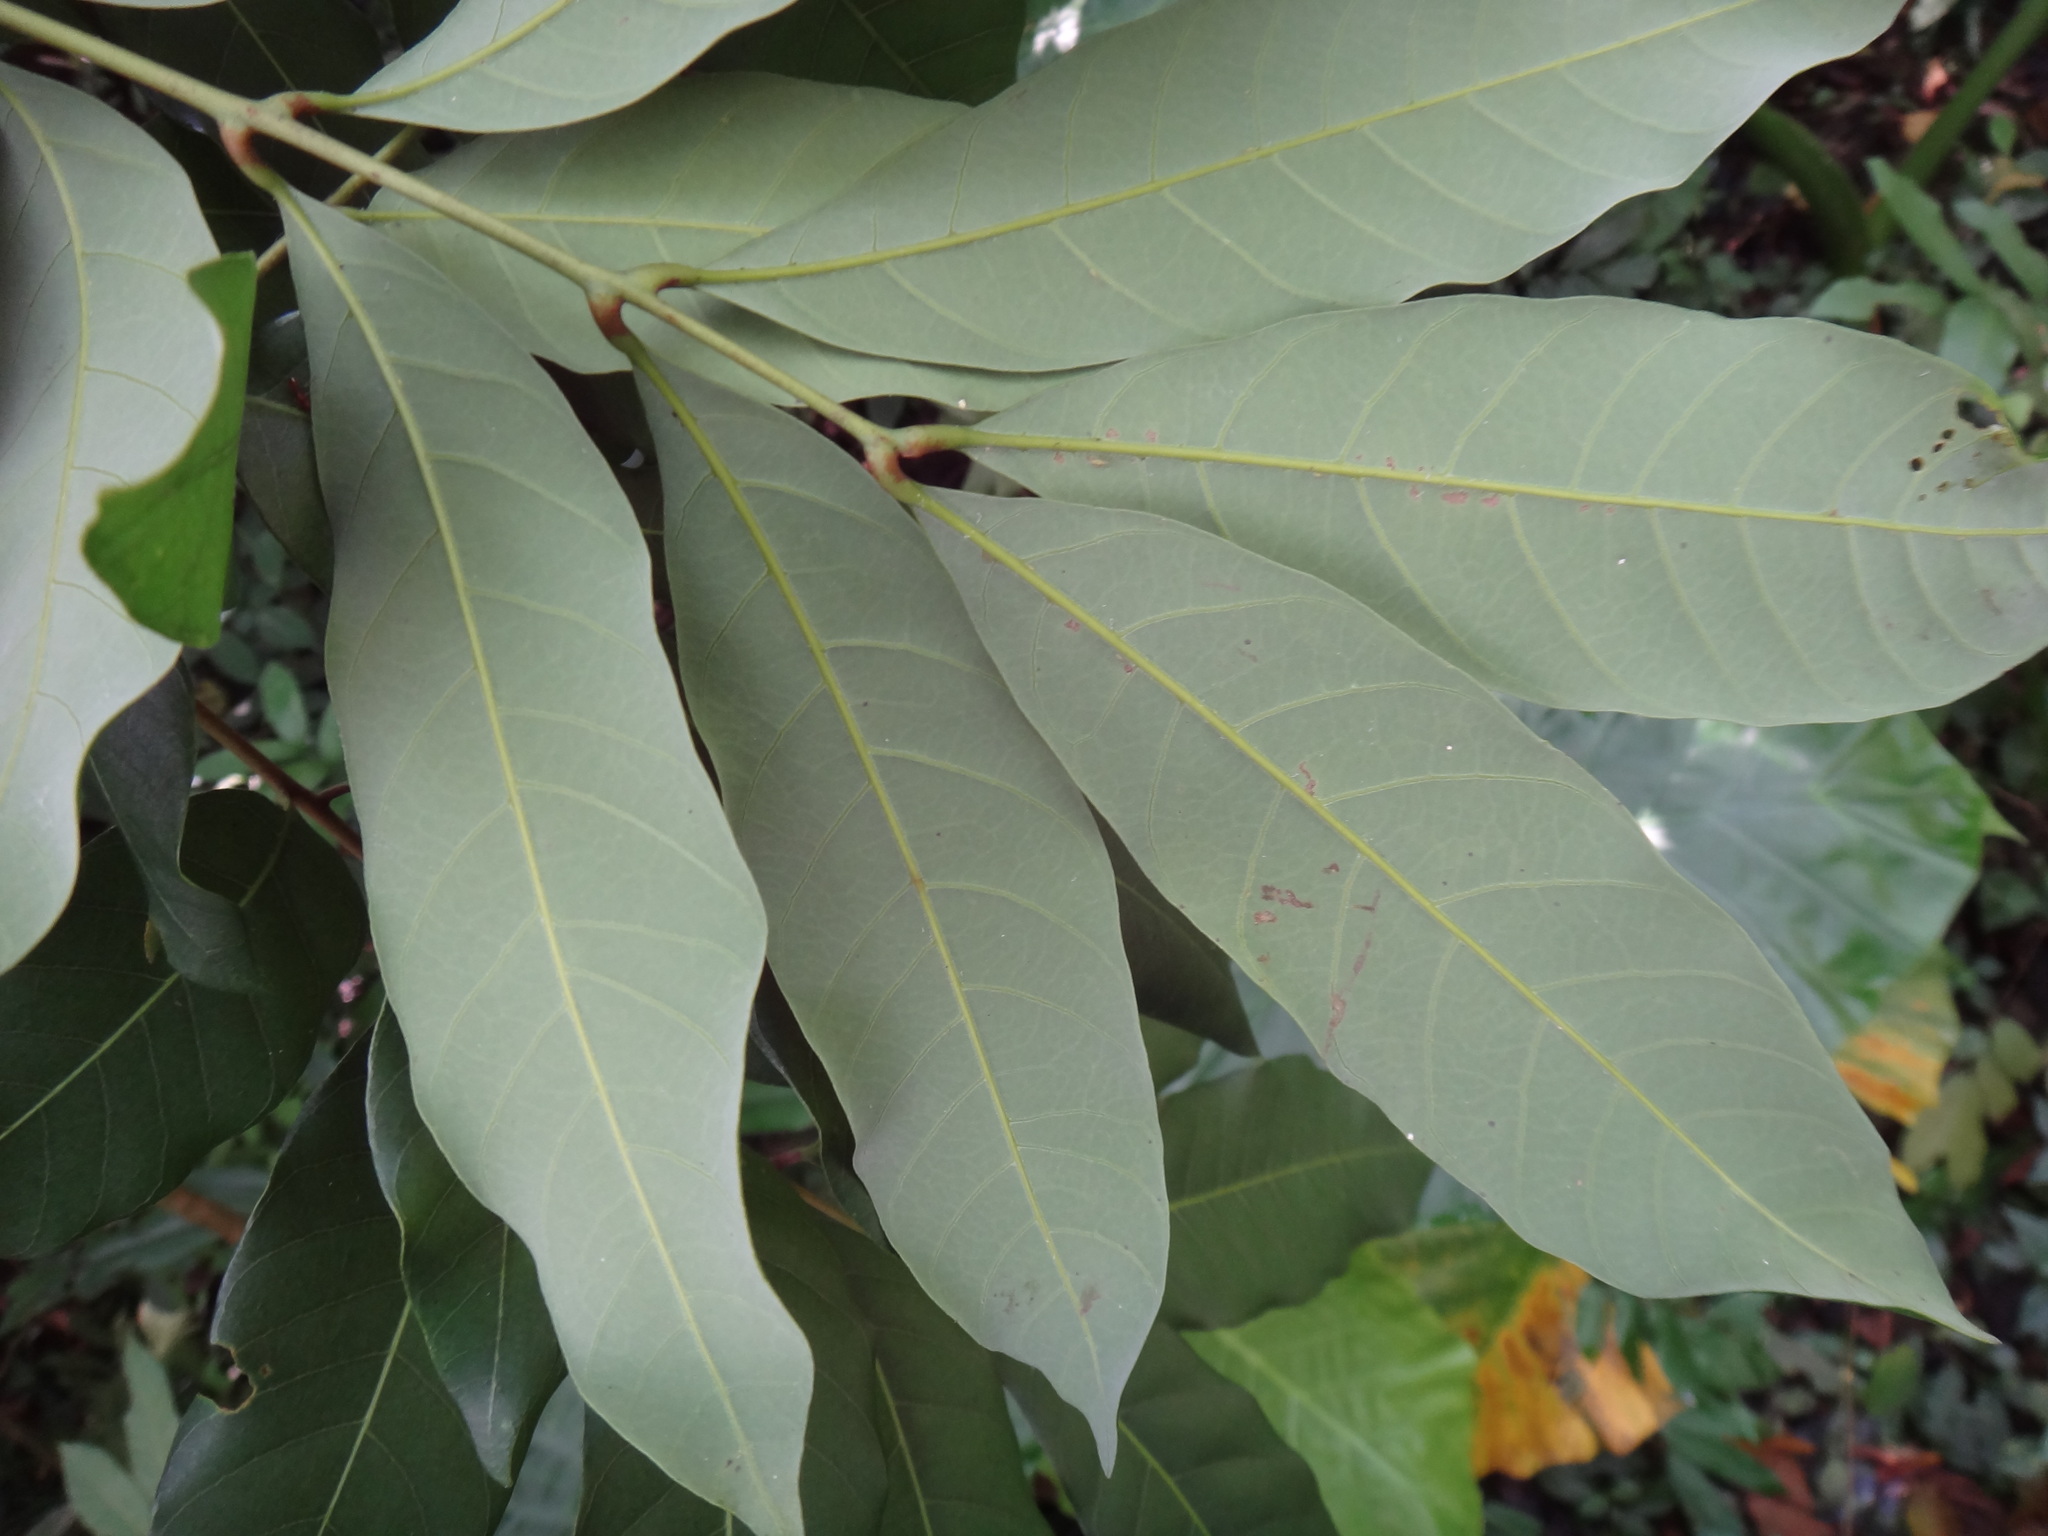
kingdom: Plantae
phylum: Tracheophyta
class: Magnoliopsida
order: Sapindales
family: Sapindaceae
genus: Dimocarpus
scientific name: Dimocarpus longan
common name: Longan
